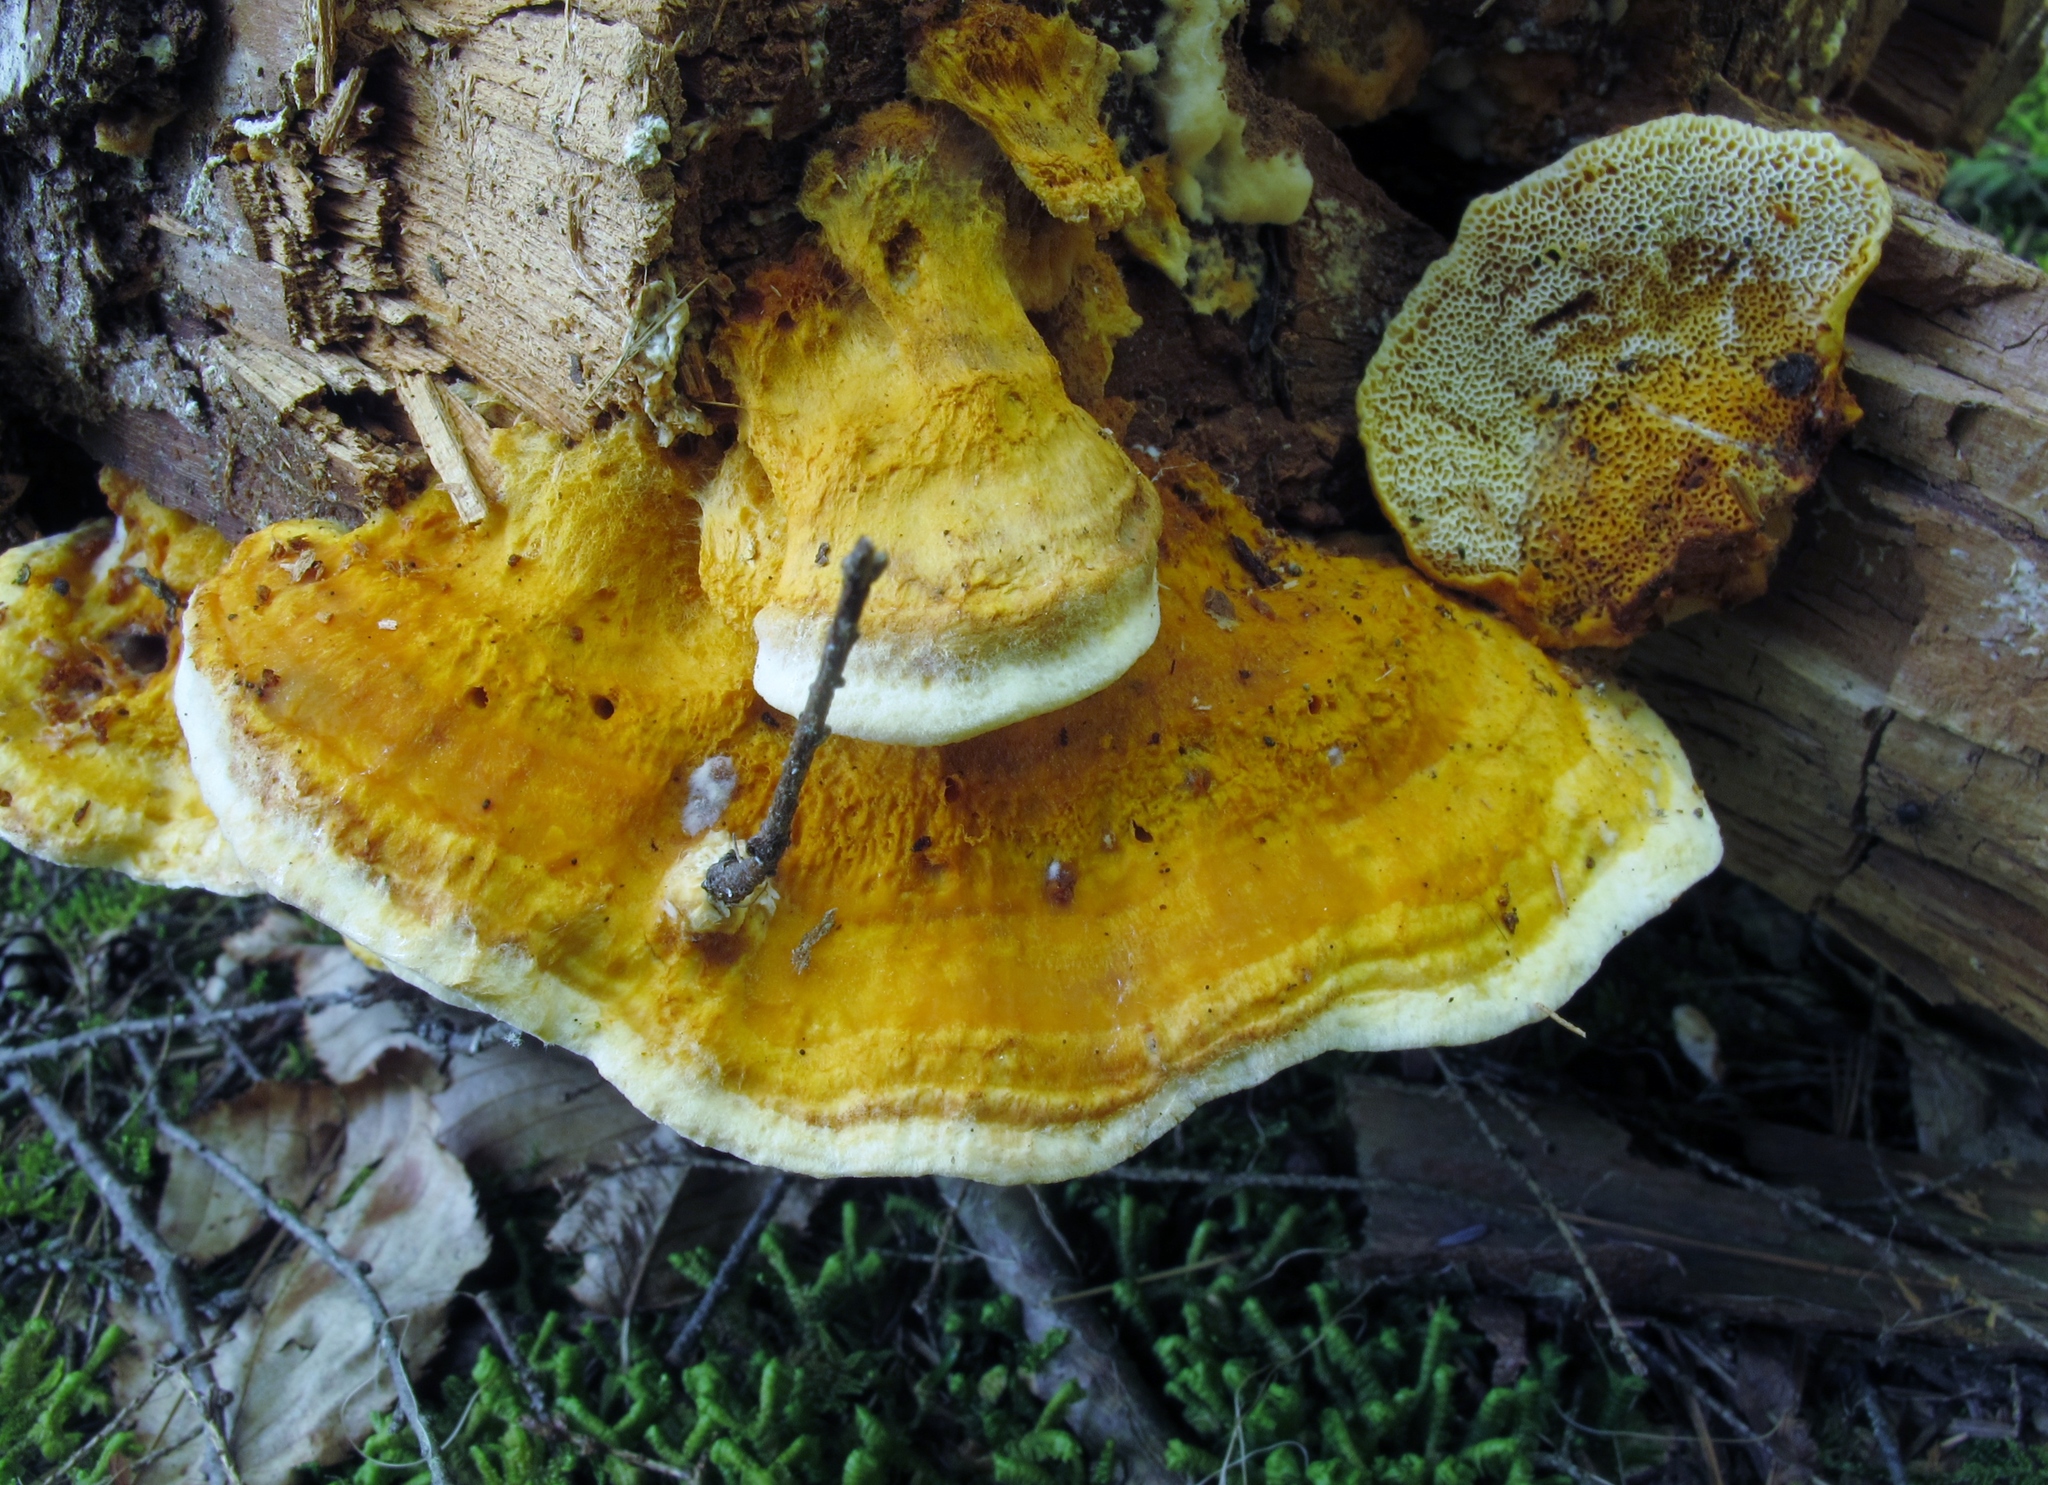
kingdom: Fungi
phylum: Basidiomycota
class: Agaricomycetes
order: Polyporales
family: Pycnoporellaceae
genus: Pycnoporellus
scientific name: Pycnoporellus fulgens
